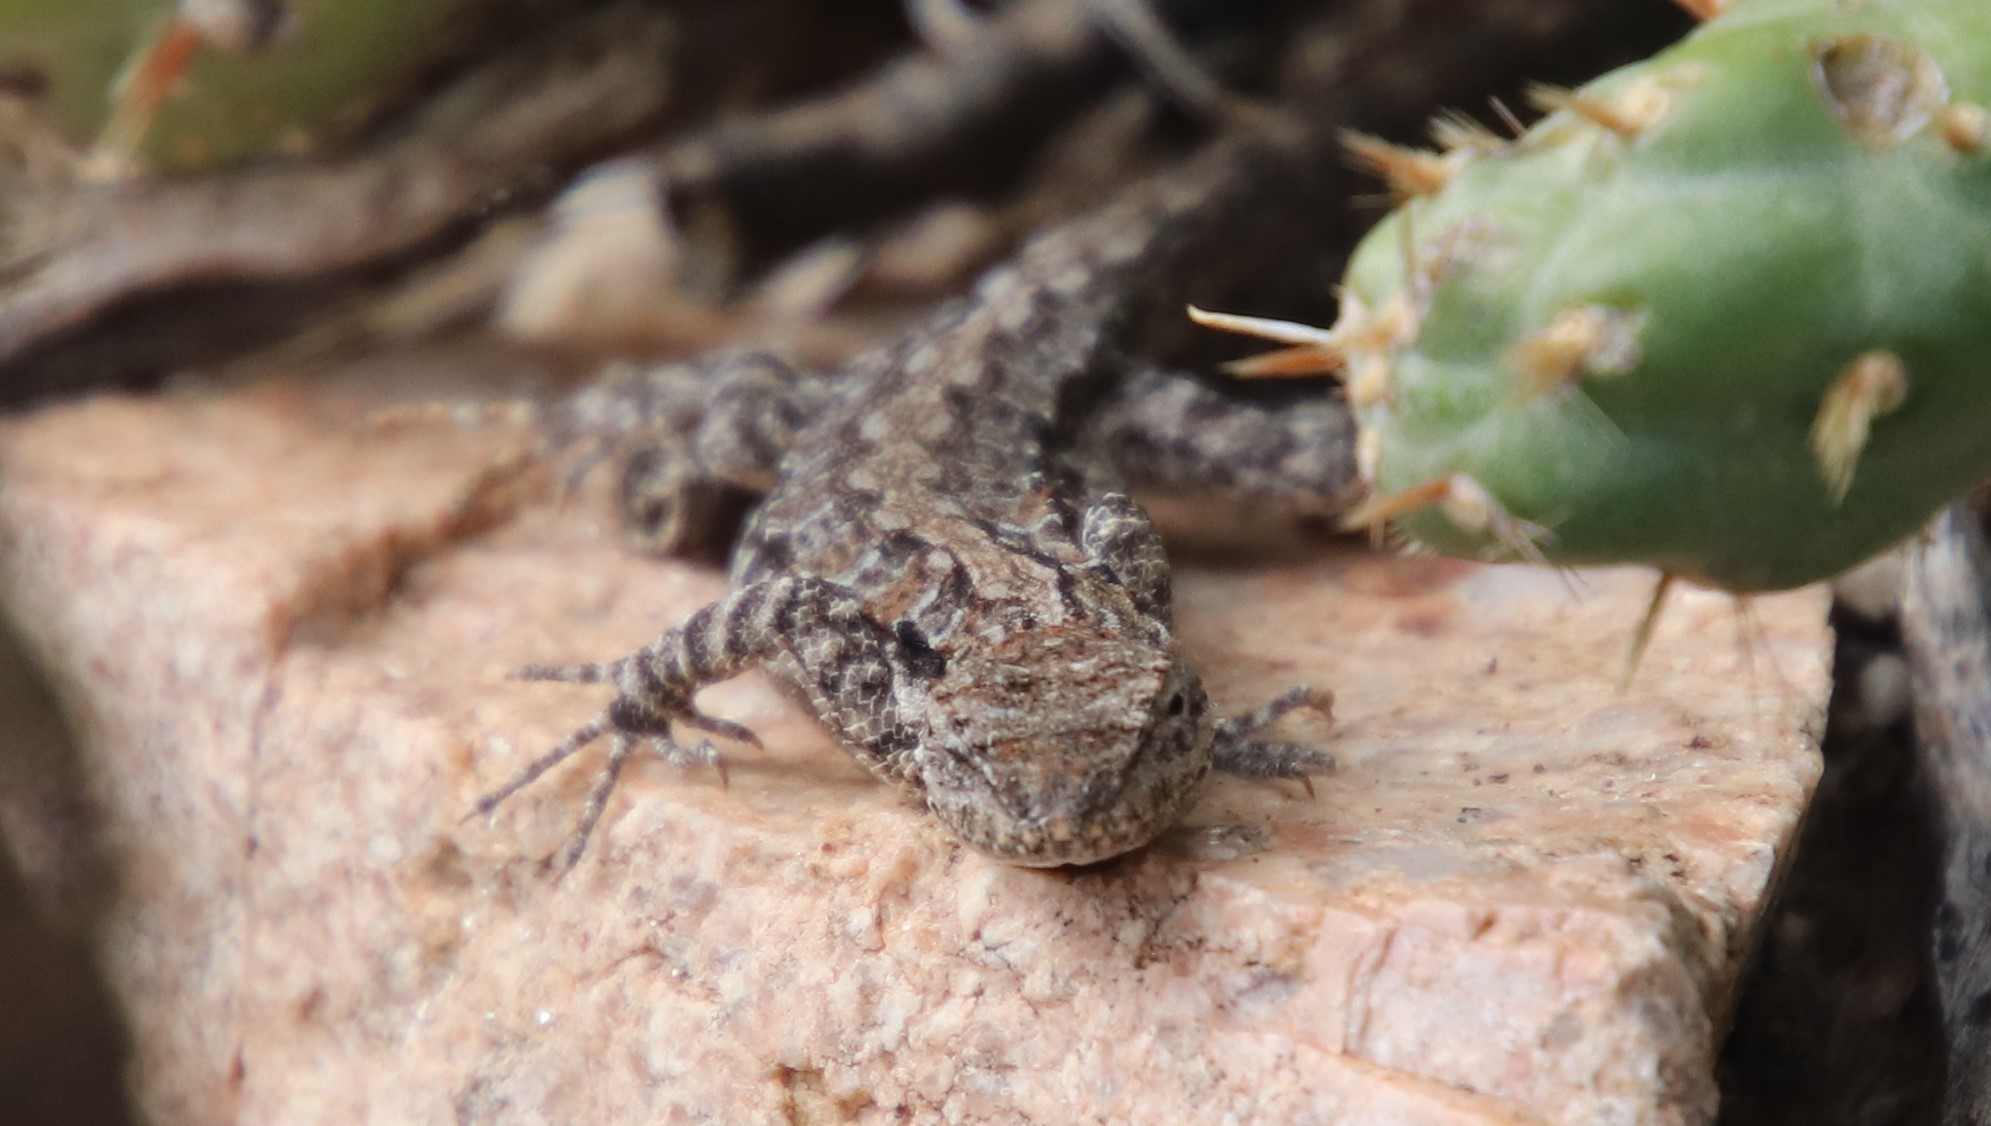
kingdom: Animalia
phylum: Chordata
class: Squamata
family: Phrynosomatidae
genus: Urosaurus
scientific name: Urosaurus nigricauda
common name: Baja california brush lizard
